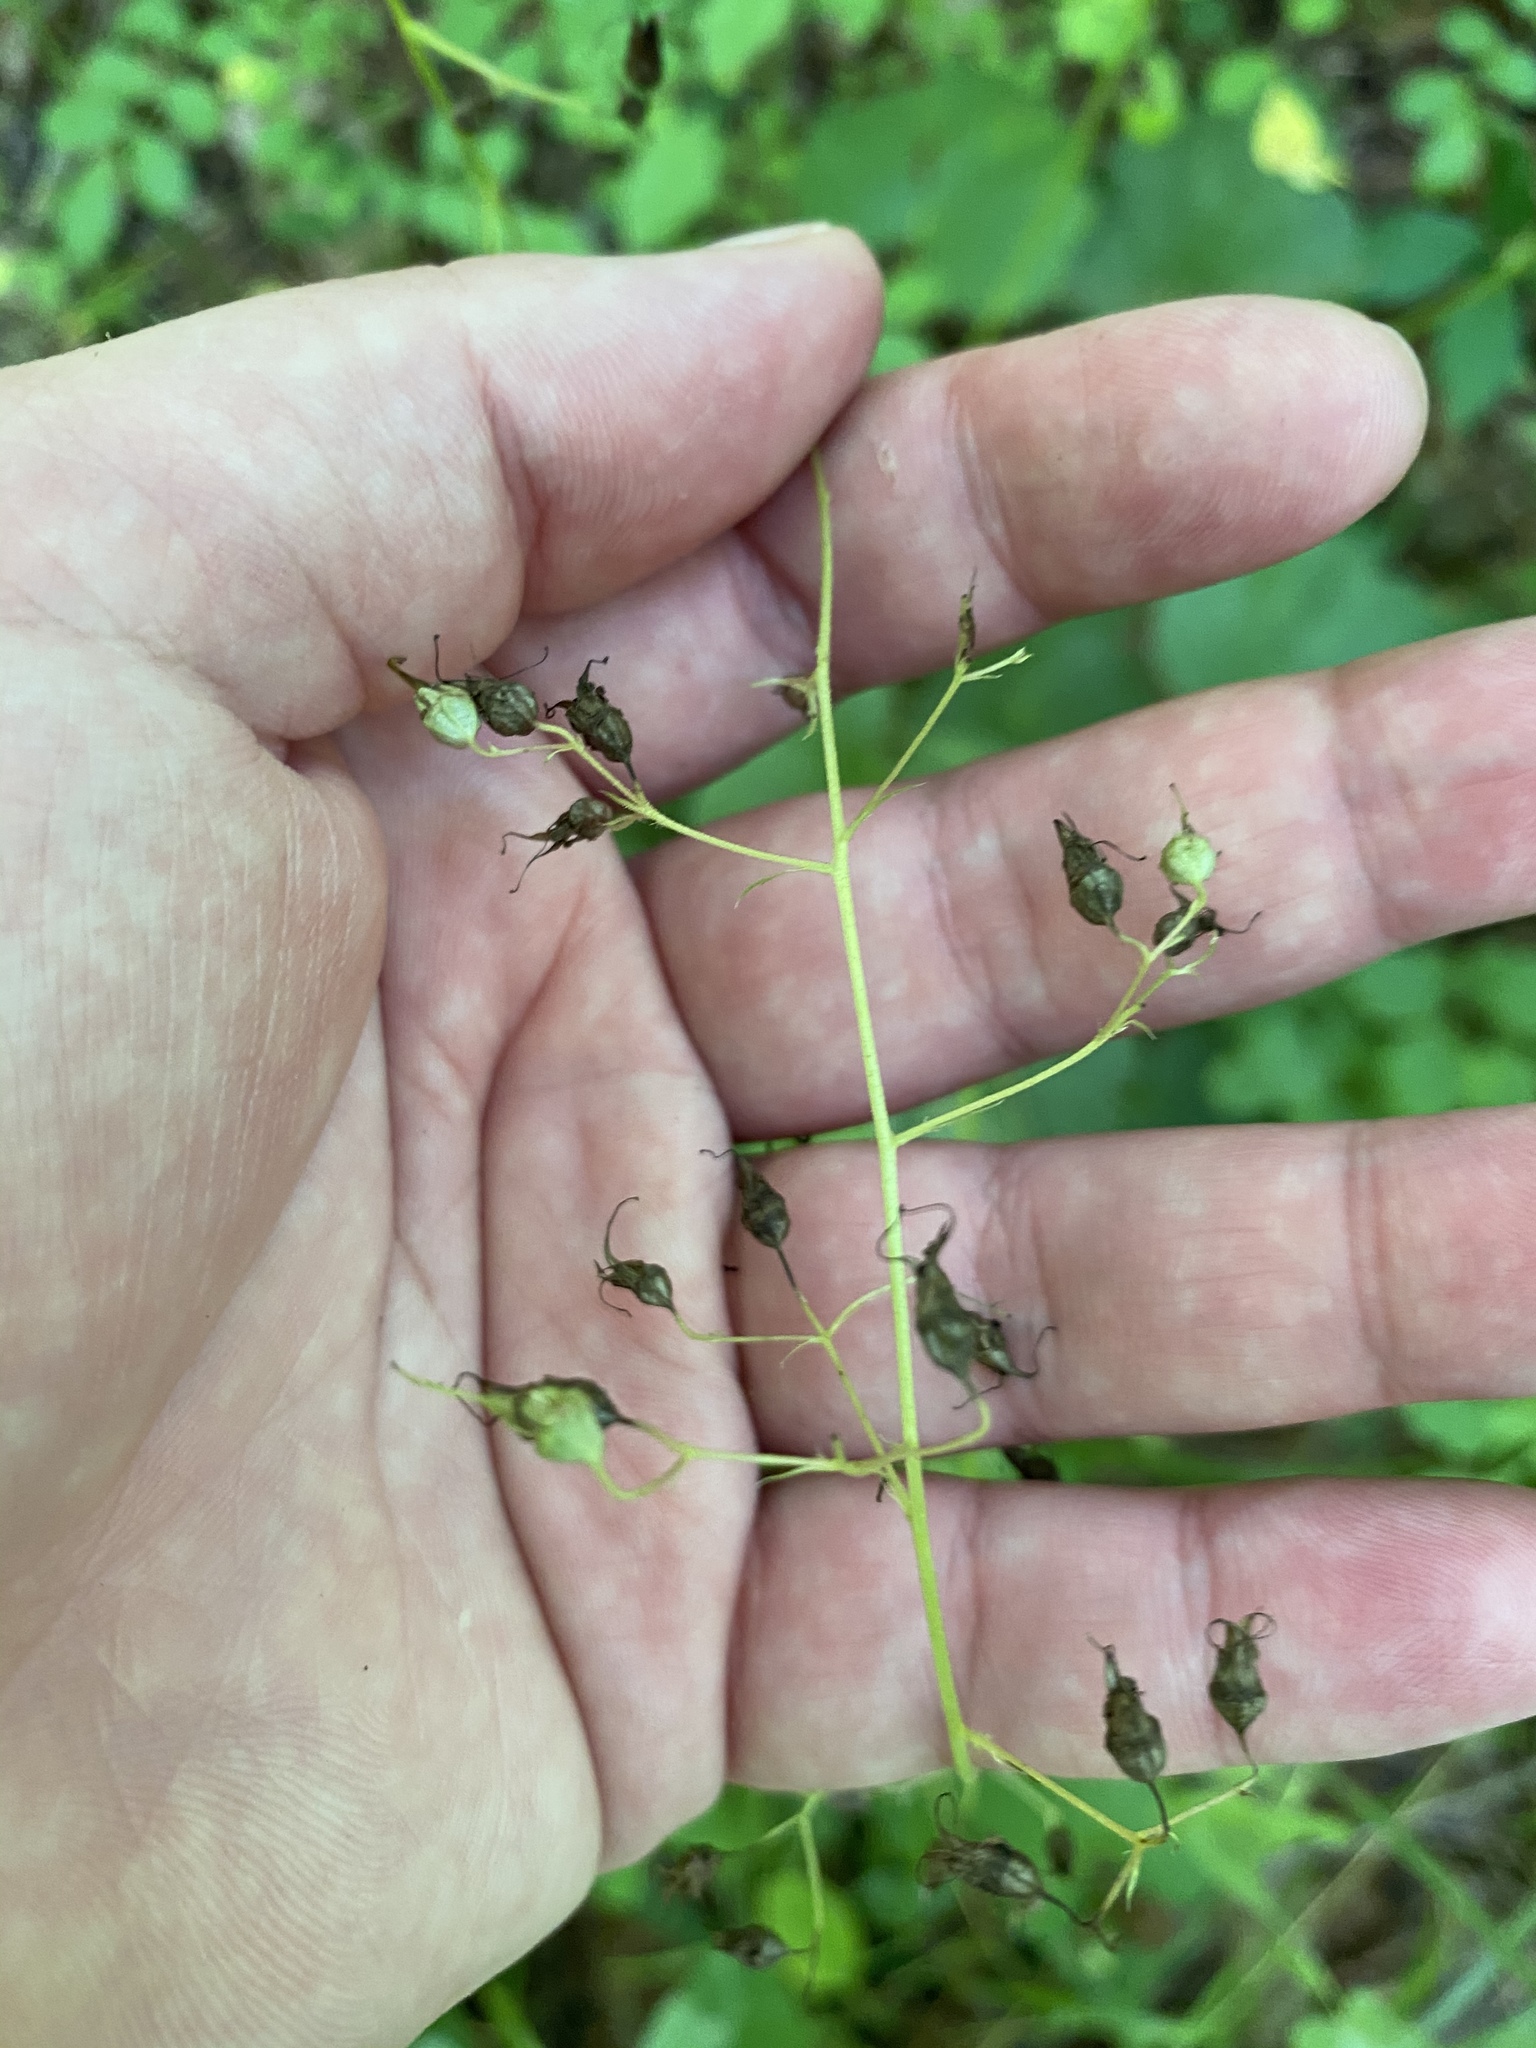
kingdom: Plantae
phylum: Tracheophyta
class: Magnoliopsida
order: Saxifragales
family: Saxifragaceae
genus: Heuchera
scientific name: Heuchera americana
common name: Alumroot
